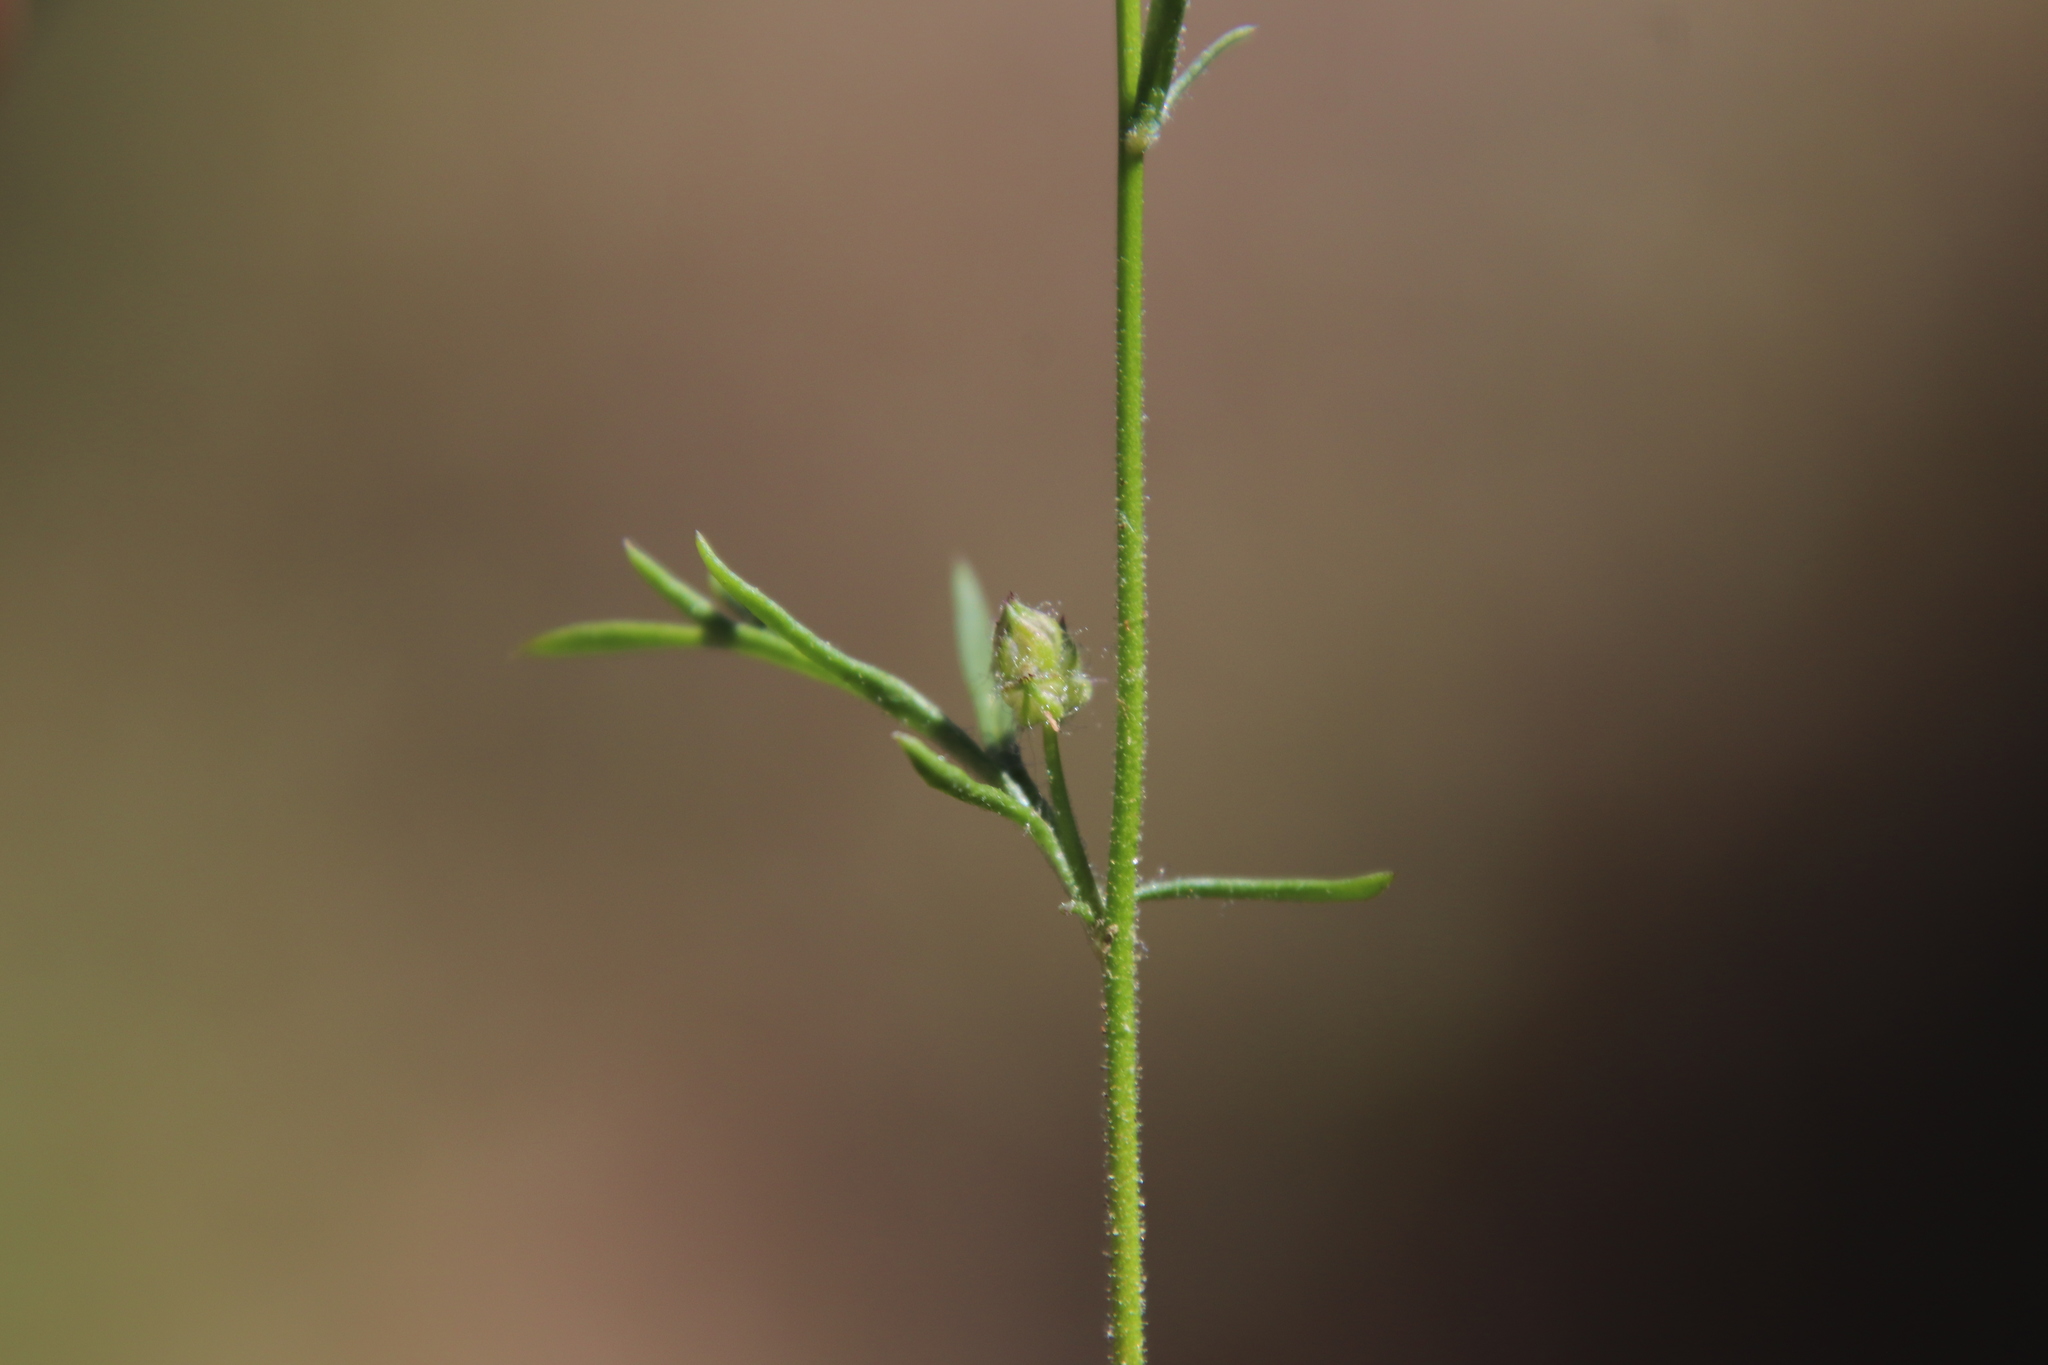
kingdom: Plantae
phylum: Tracheophyta
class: Magnoliopsida
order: Ericales
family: Polemoniaceae
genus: Gilia
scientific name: Gilia capitata
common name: Bluehead gilia
